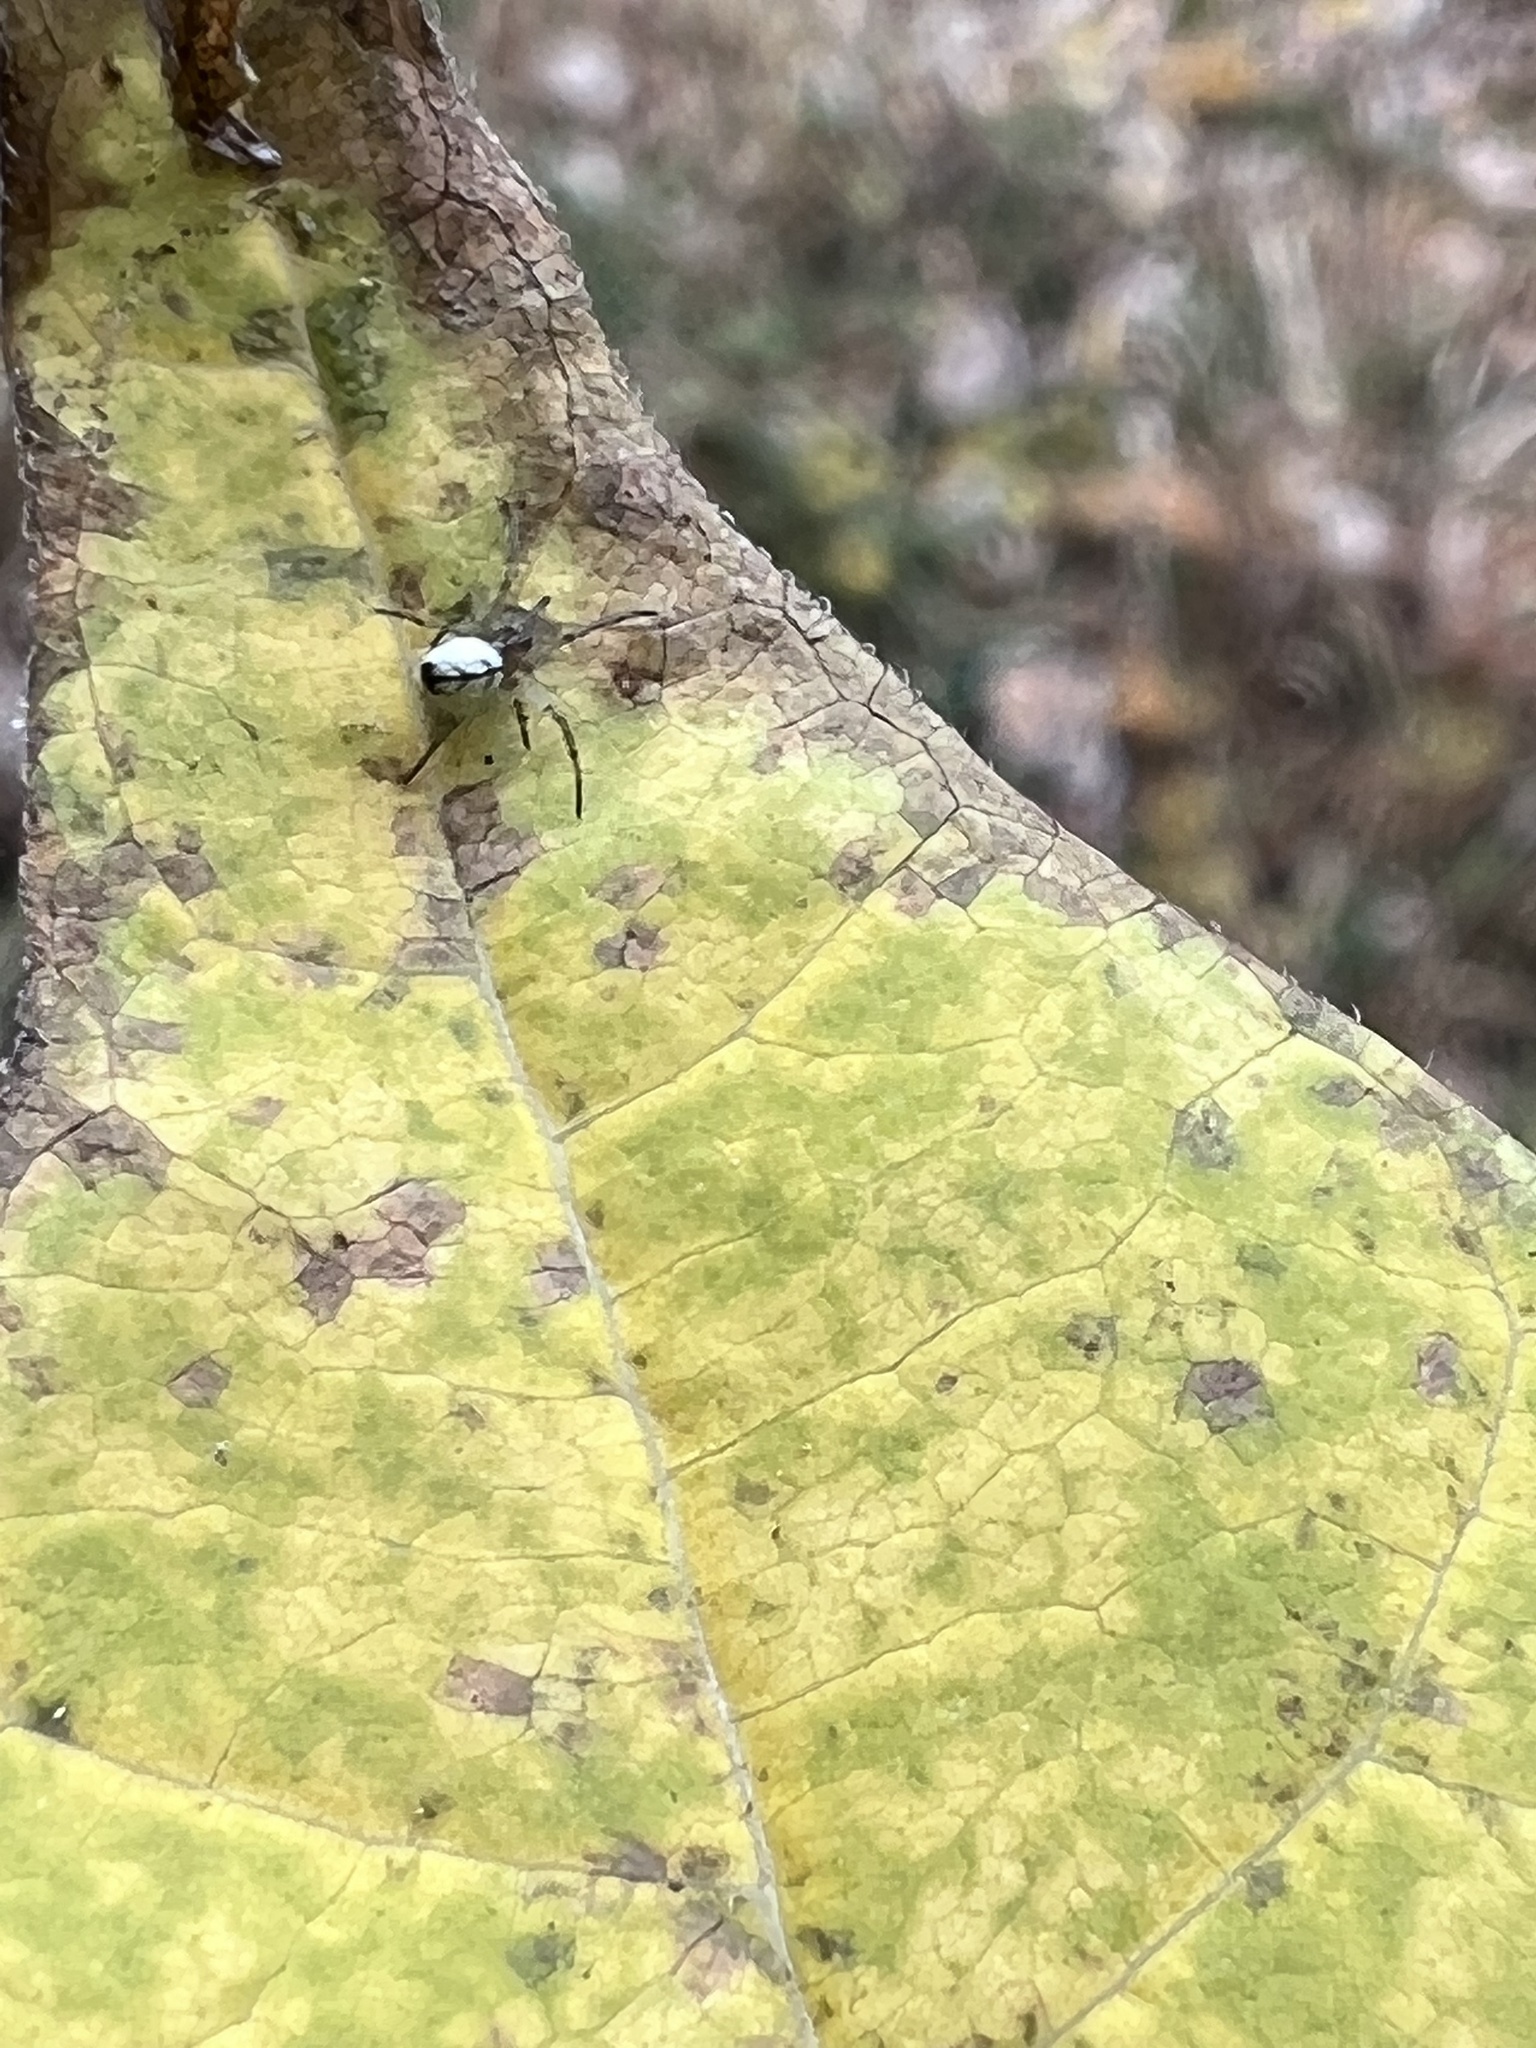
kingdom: Animalia
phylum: Arthropoda
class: Arachnida
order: Araneae
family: Tetragnathidae
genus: Leucauge
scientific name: Leucauge venusta
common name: Longjawed orb weavers
